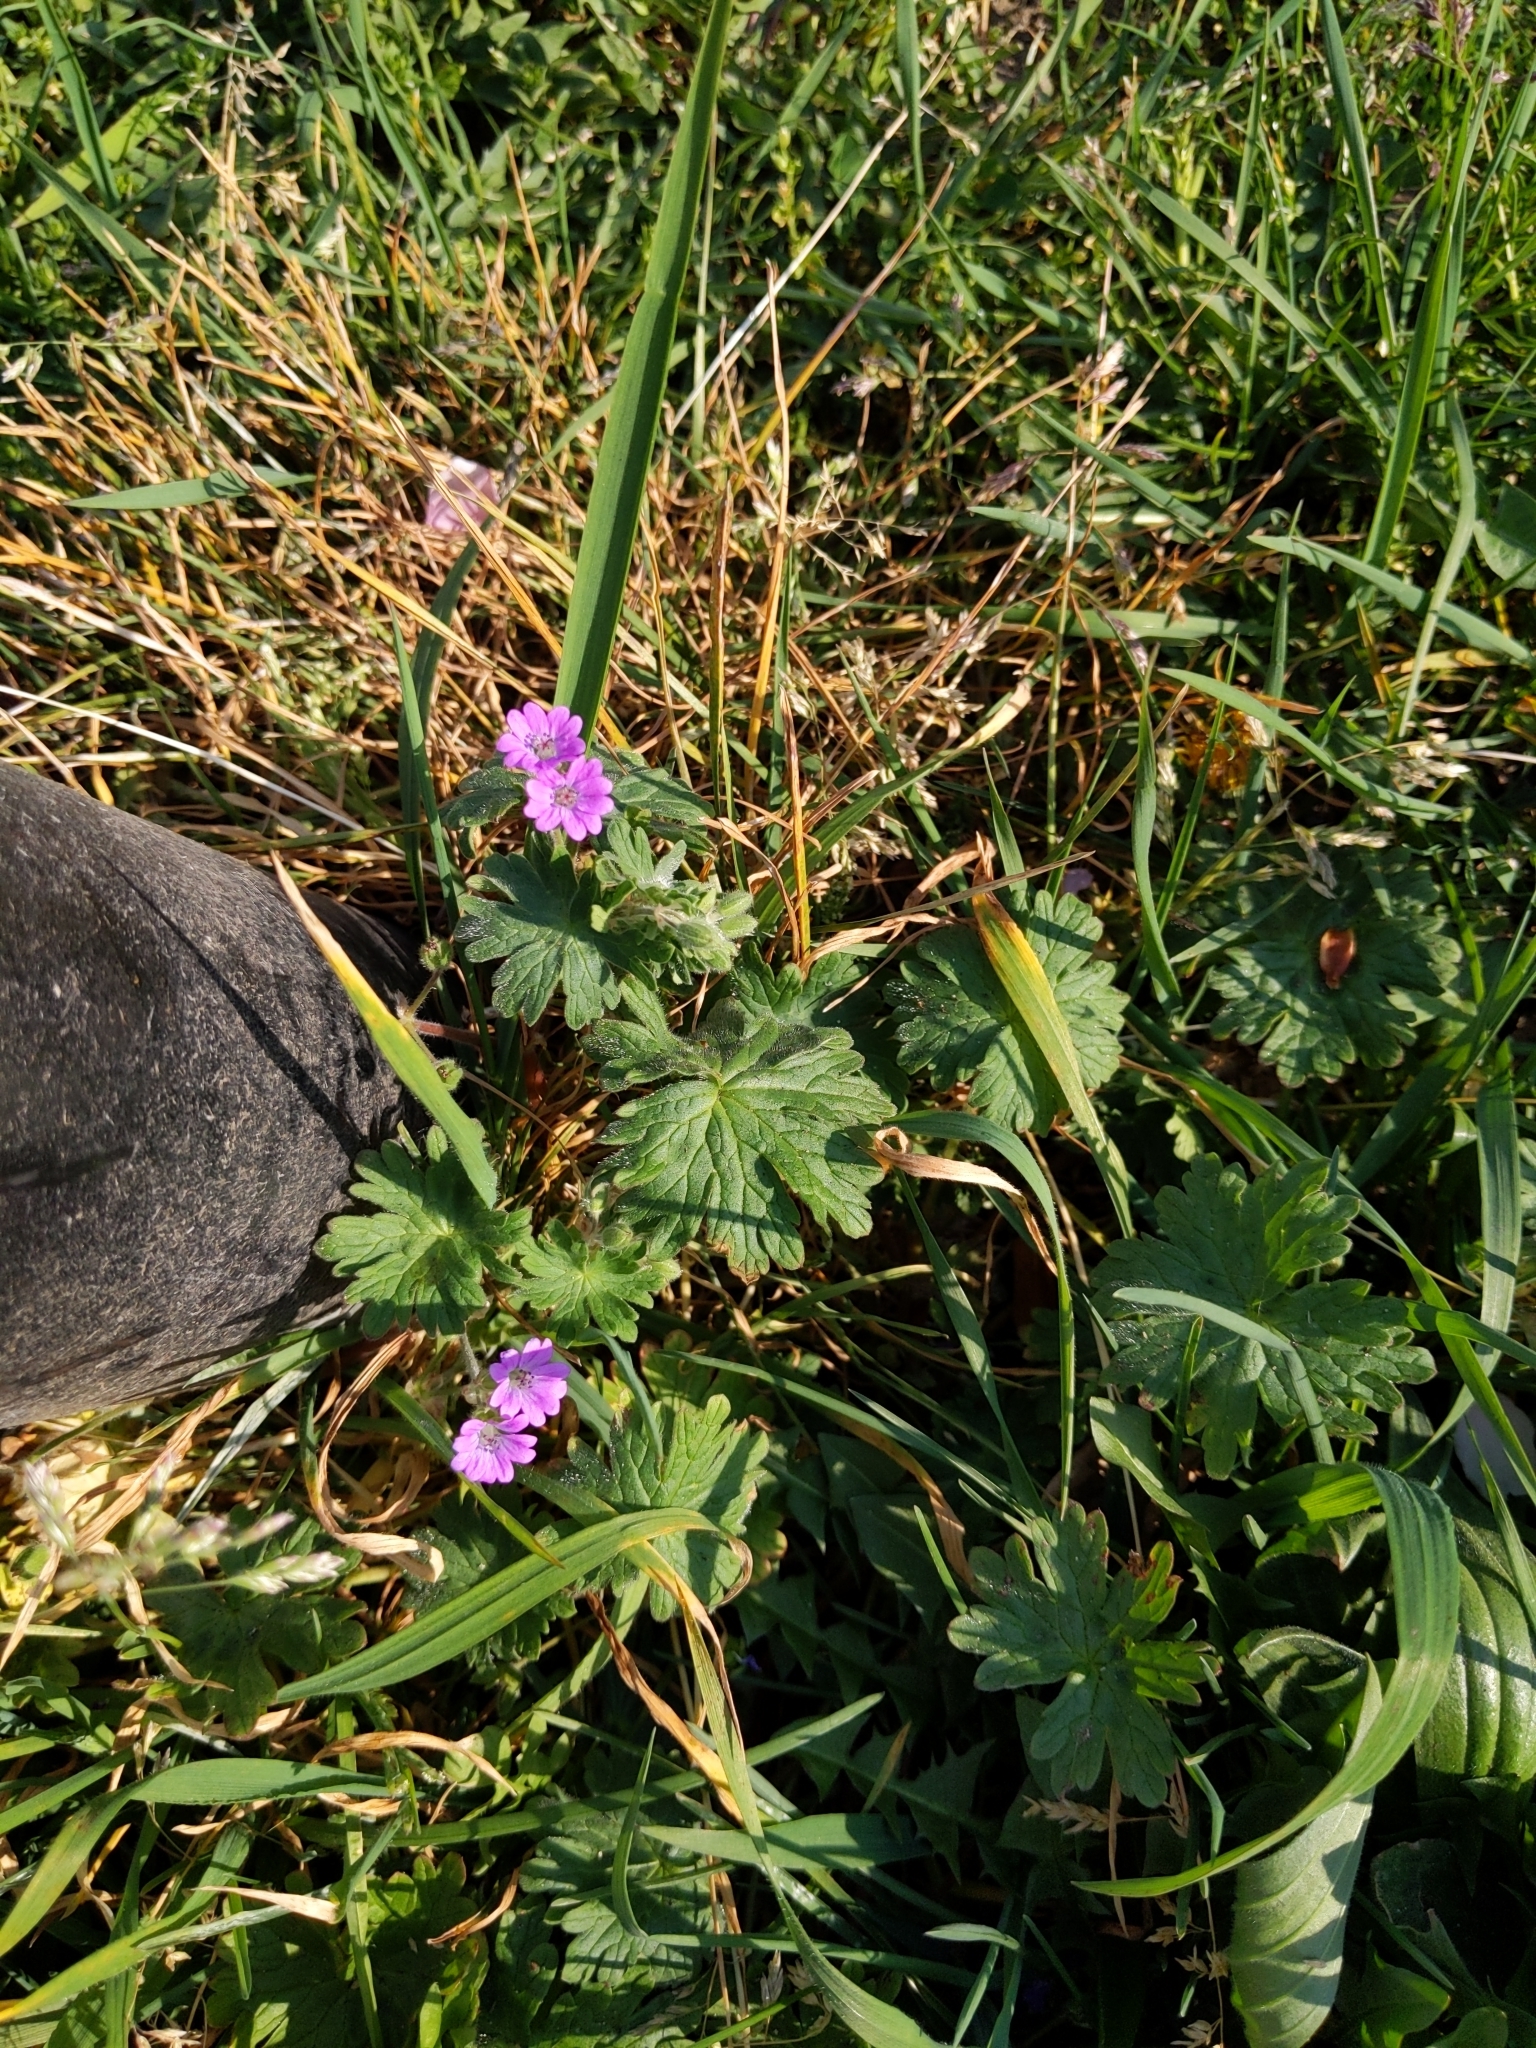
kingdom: Plantae
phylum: Tracheophyta
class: Magnoliopsida
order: Geraniales
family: Geraniaceae
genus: Geranium
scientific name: Geranium molle
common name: Dove's-foot crane's-bill
